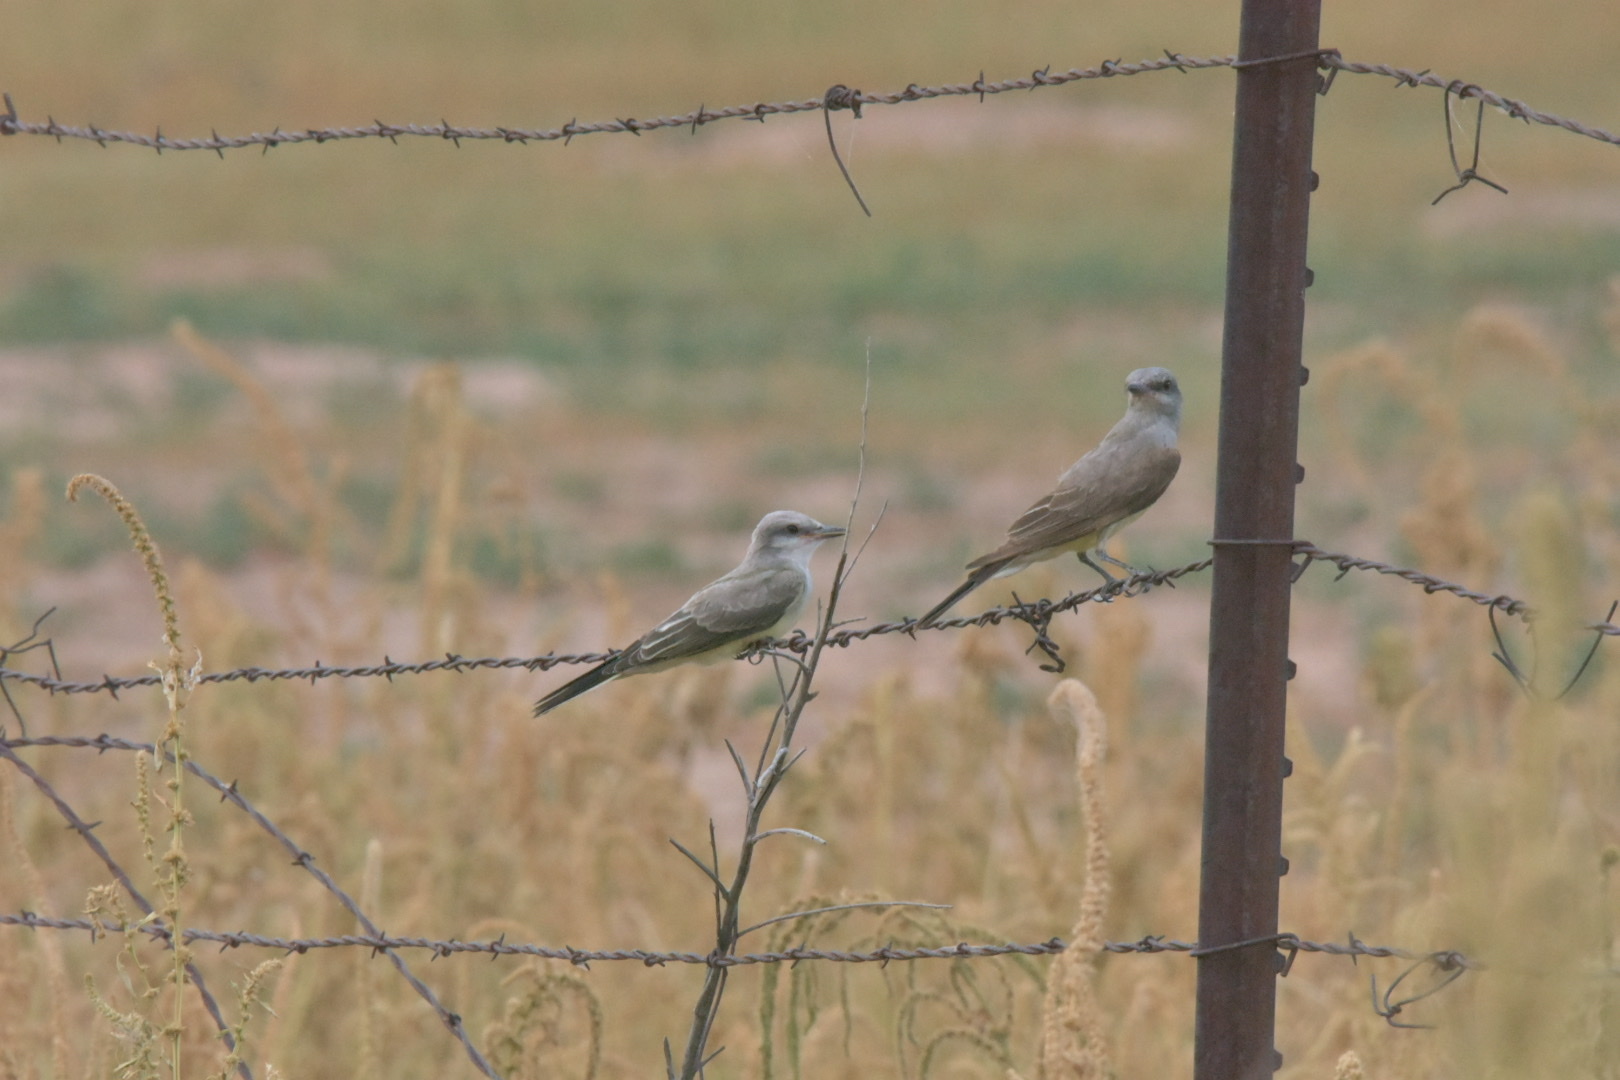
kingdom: Animalia
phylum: Chordata
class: Aves
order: Passeriformes
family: Tyrannidae
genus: Tyrannus
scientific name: Tyrannus verticalis
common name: Western kingbird
